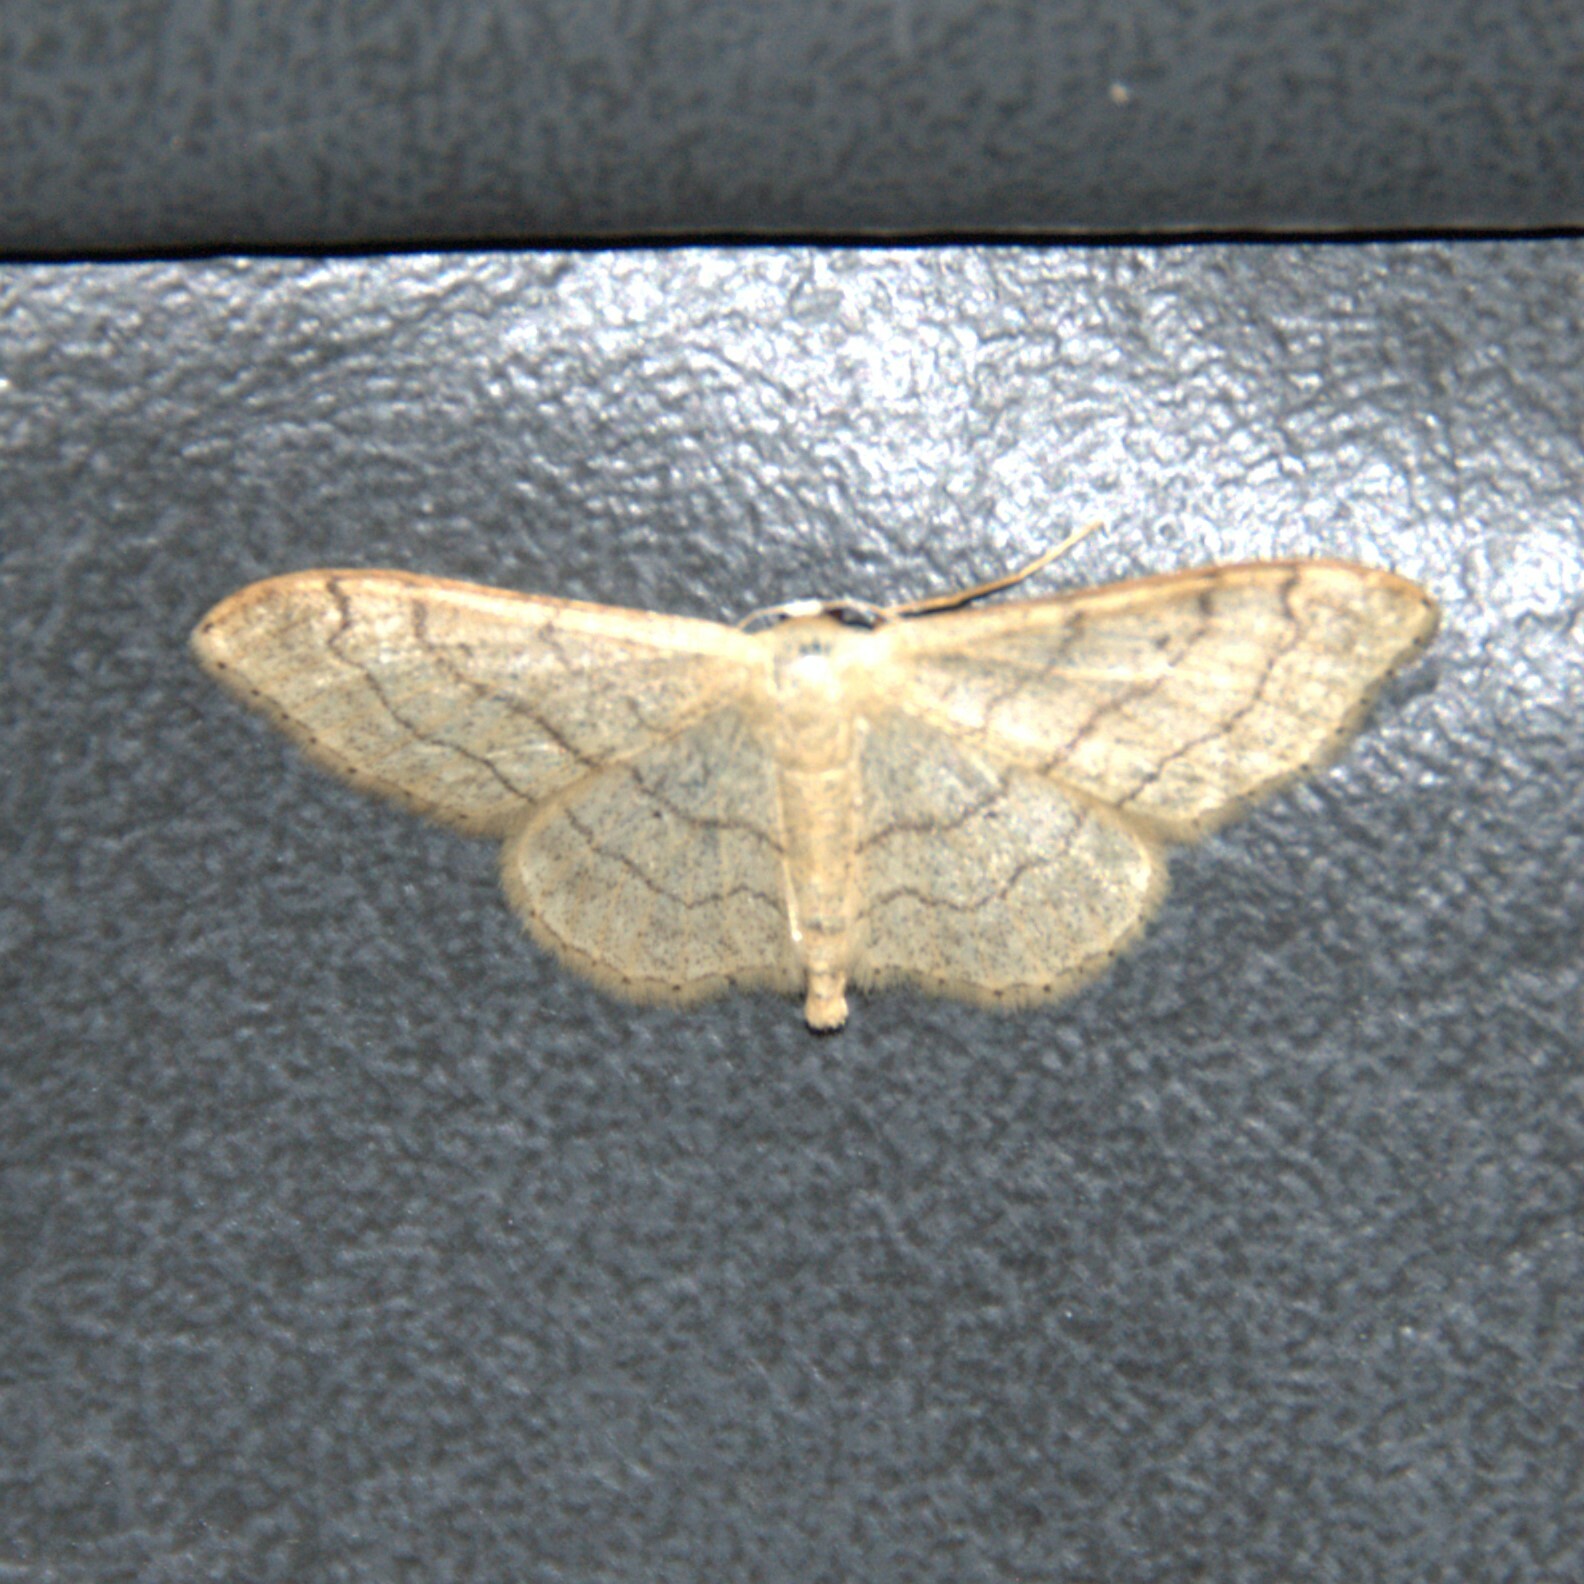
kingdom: Animalia
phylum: Arthropoda
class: Insecta
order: Lepidoptera
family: Geometridae
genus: Idaea
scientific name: Idaea aversata
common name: Riband wave
